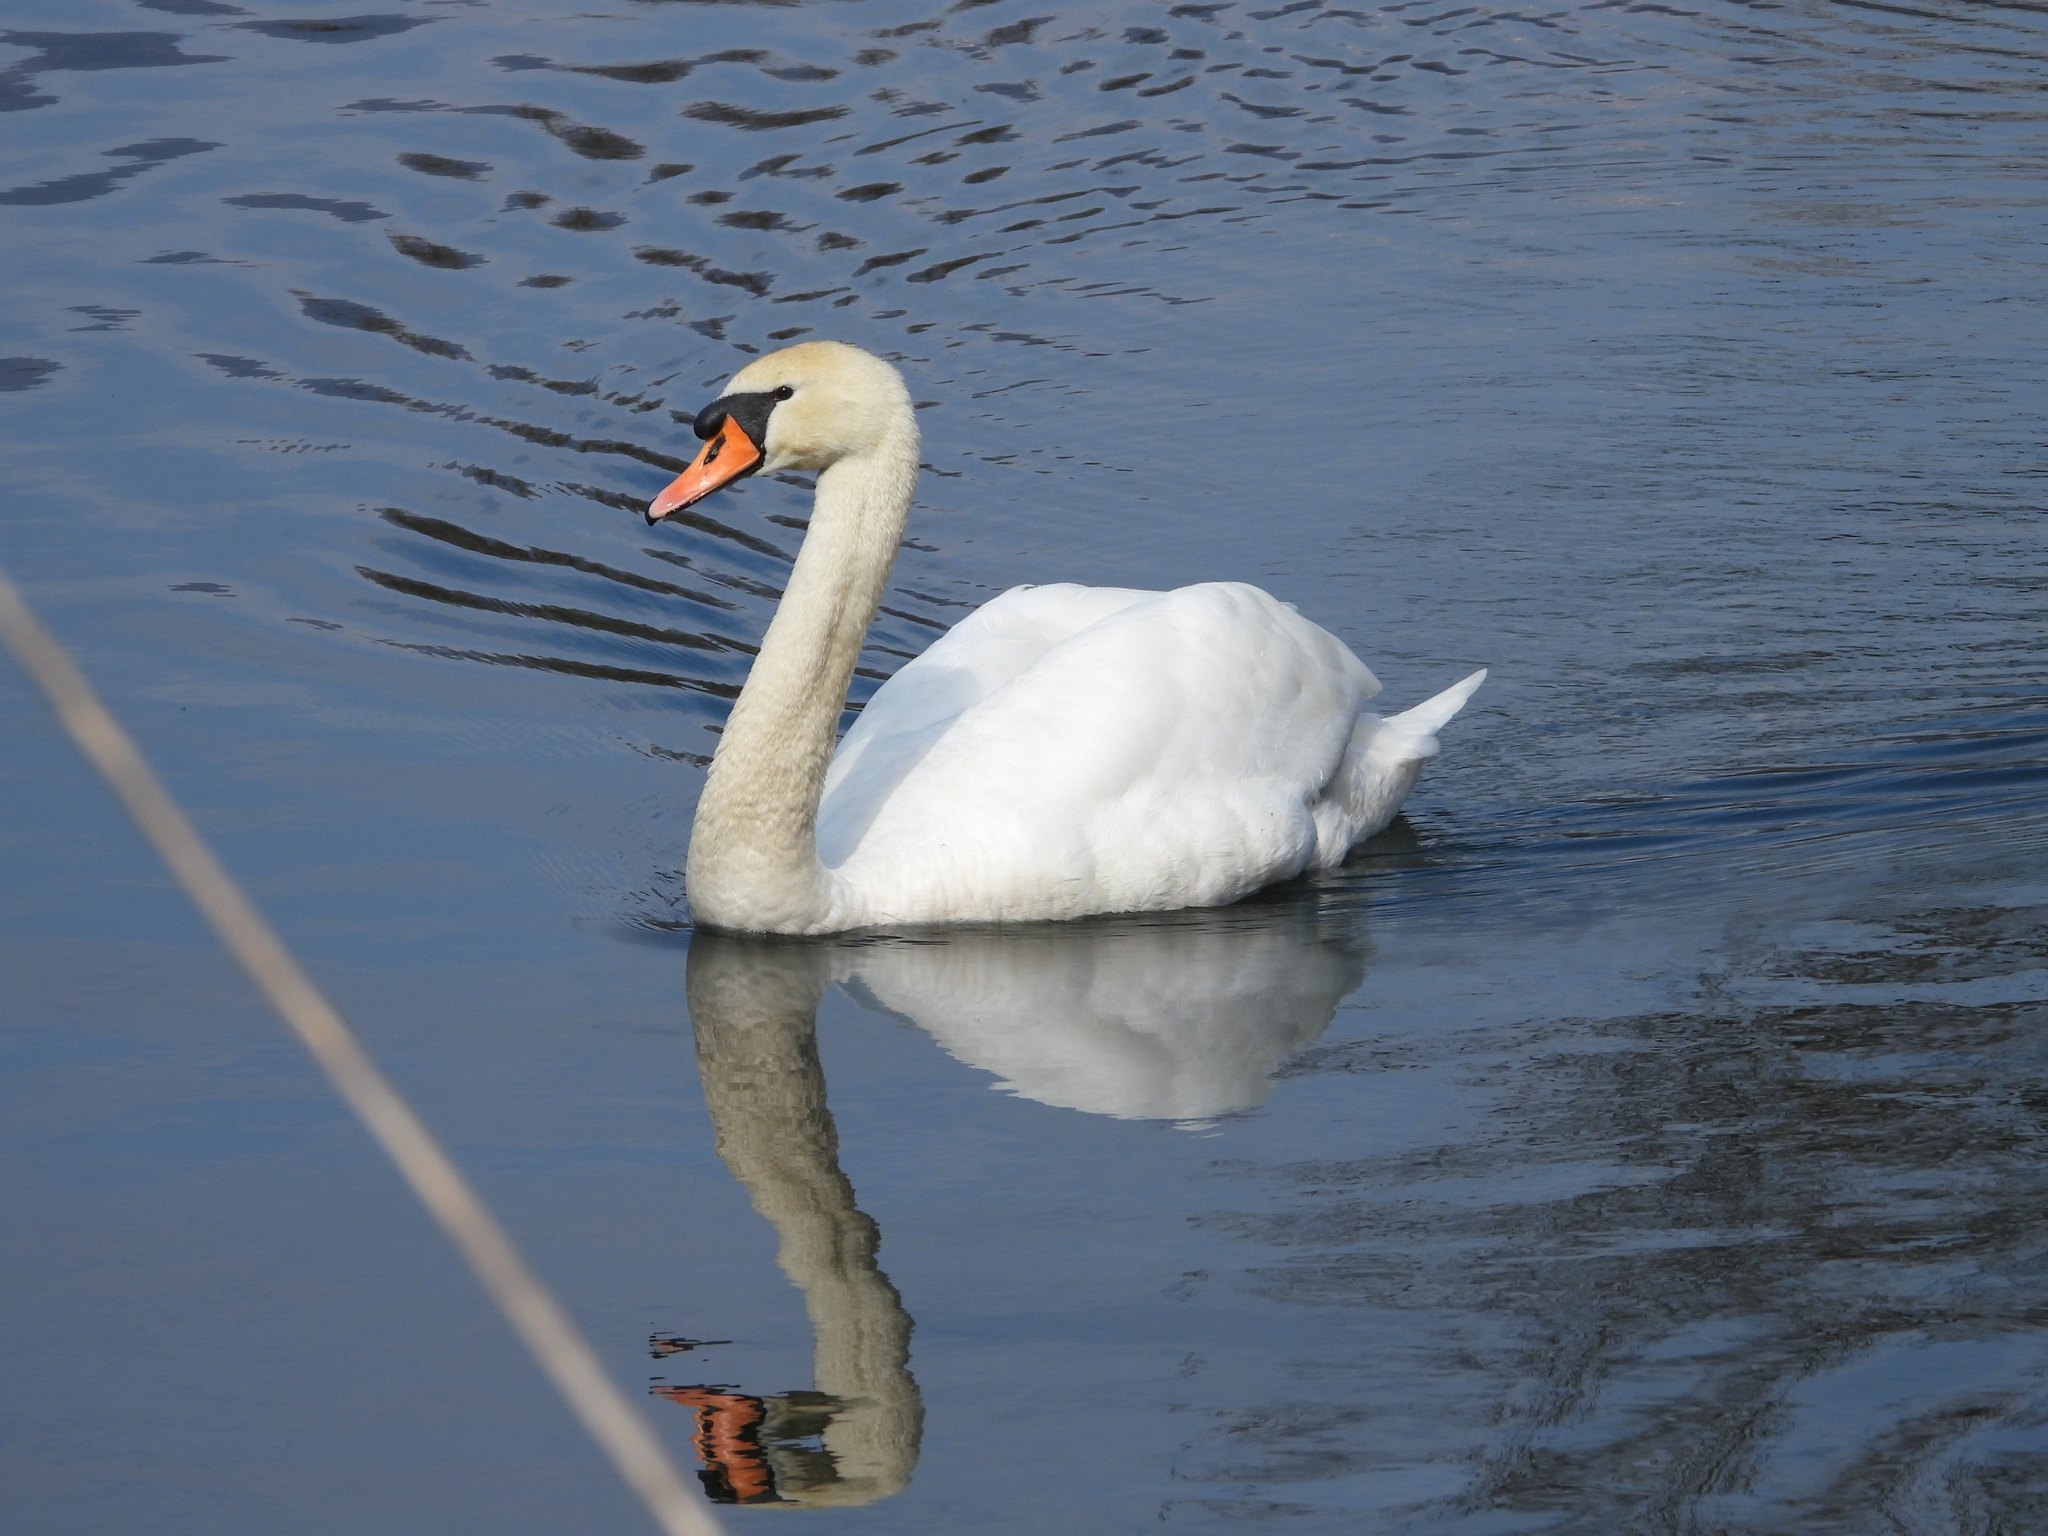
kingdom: Animalia
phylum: Chordata
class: Aves
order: Anseriformes
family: Anatidae
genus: Cygnus
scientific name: Cygnus olor
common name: Mute swan
